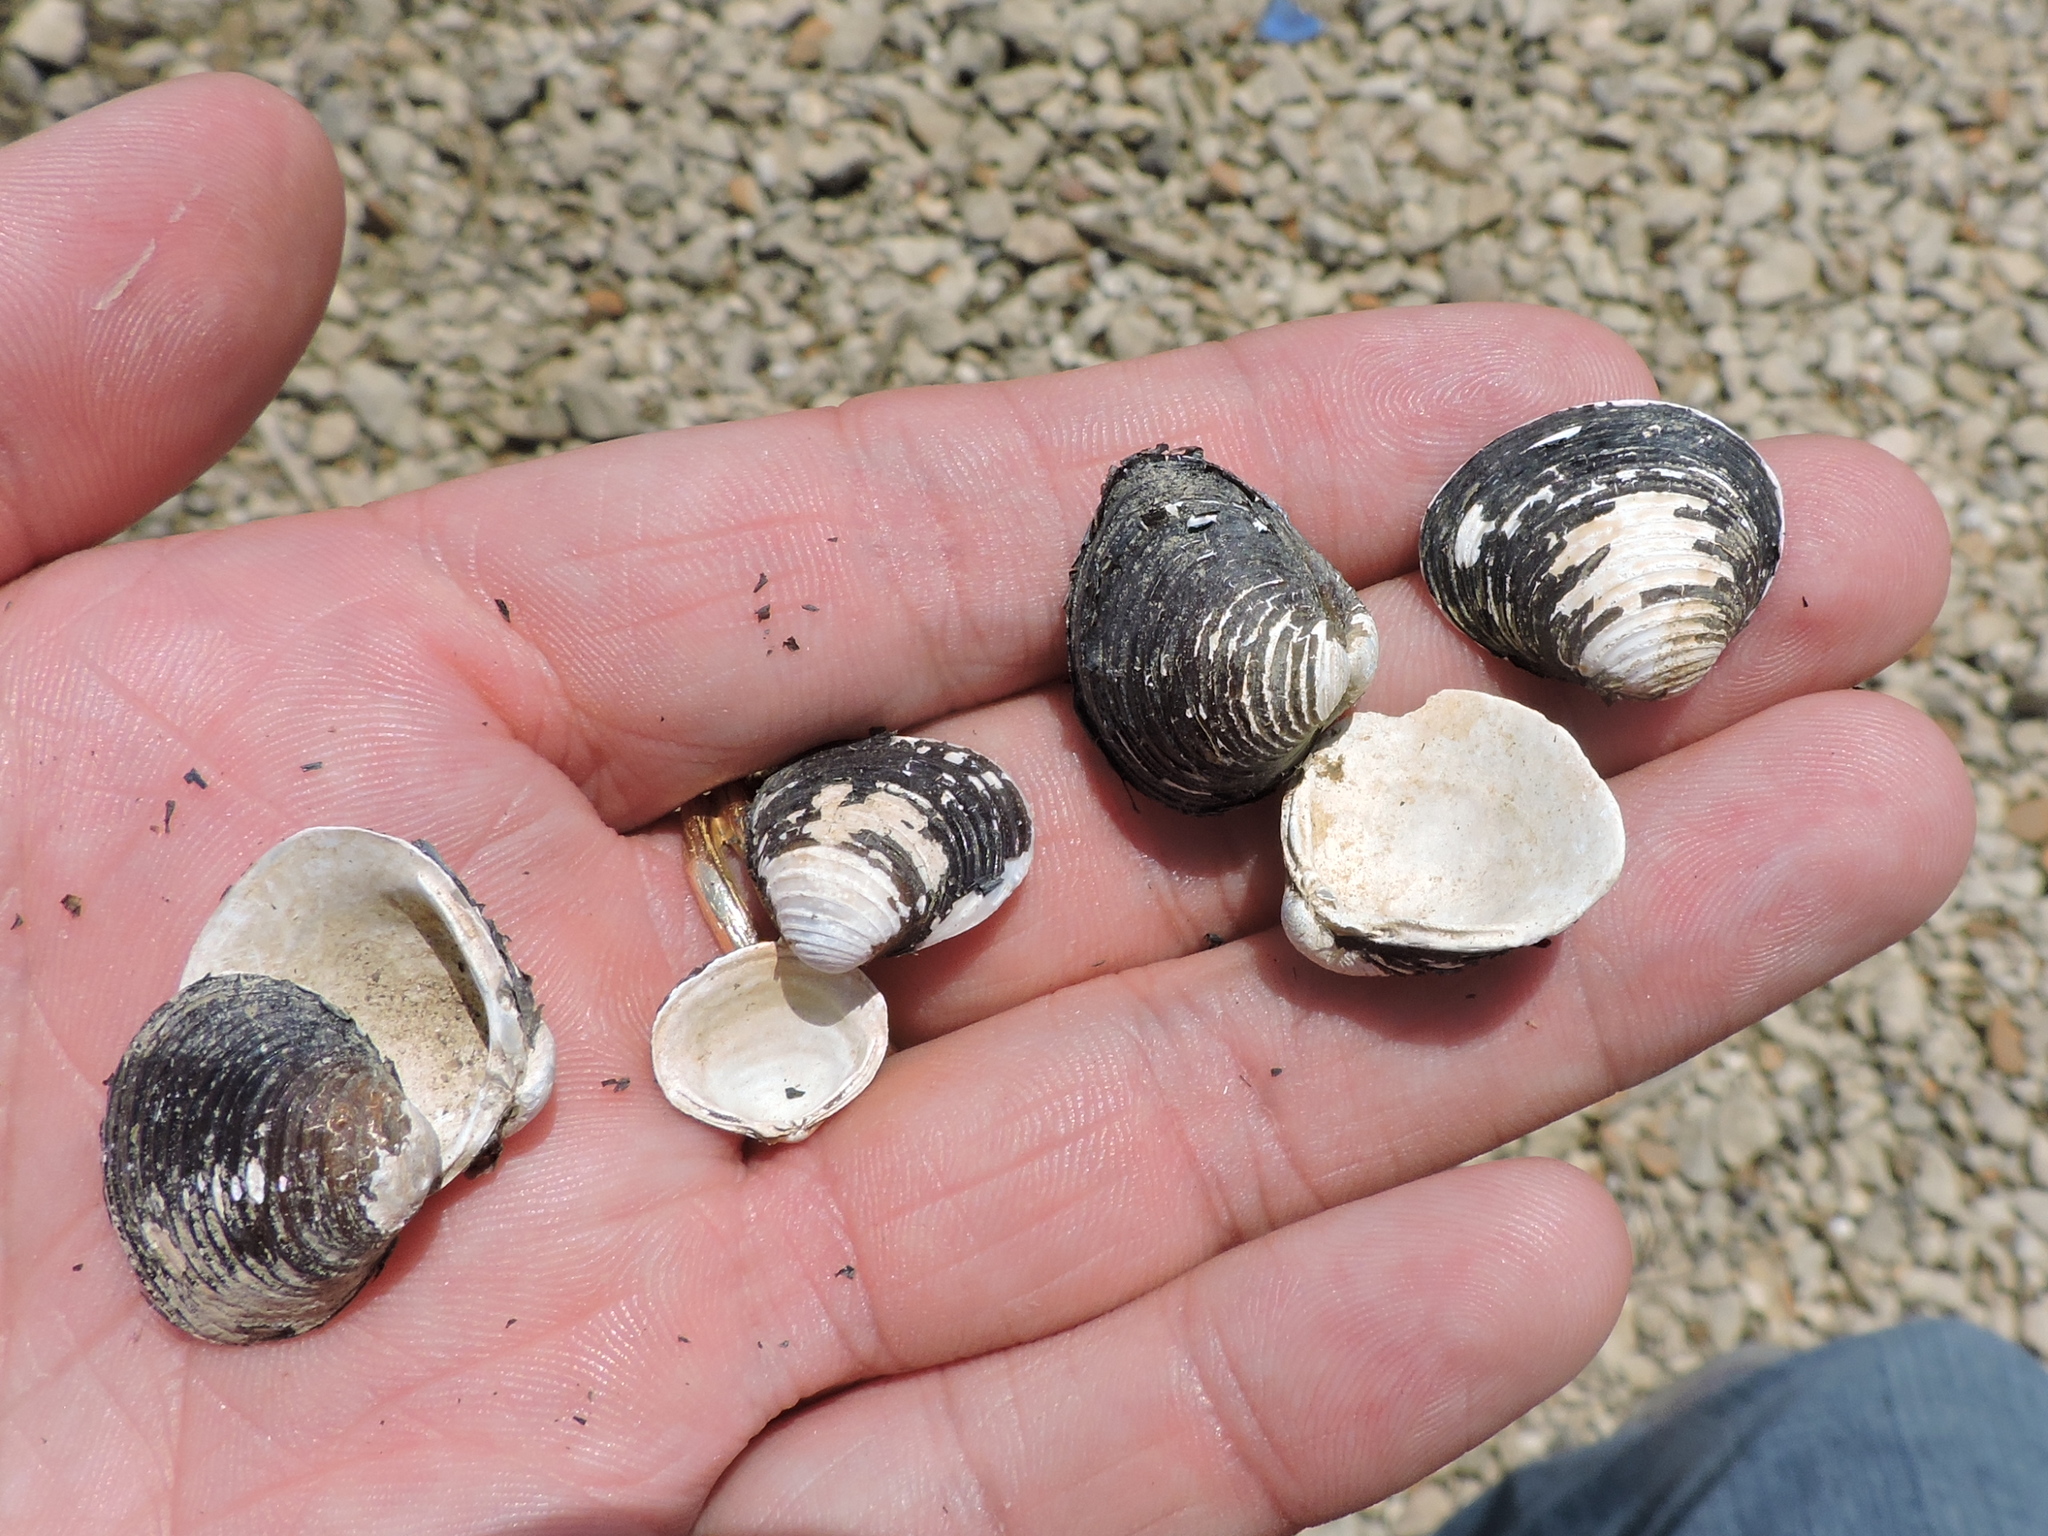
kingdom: Animalia
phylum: Mollusca
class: Bivalvia
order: Venerida
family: Cyrenidae
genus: Corbicula
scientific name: Corbicula fluminea
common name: Asian clam
